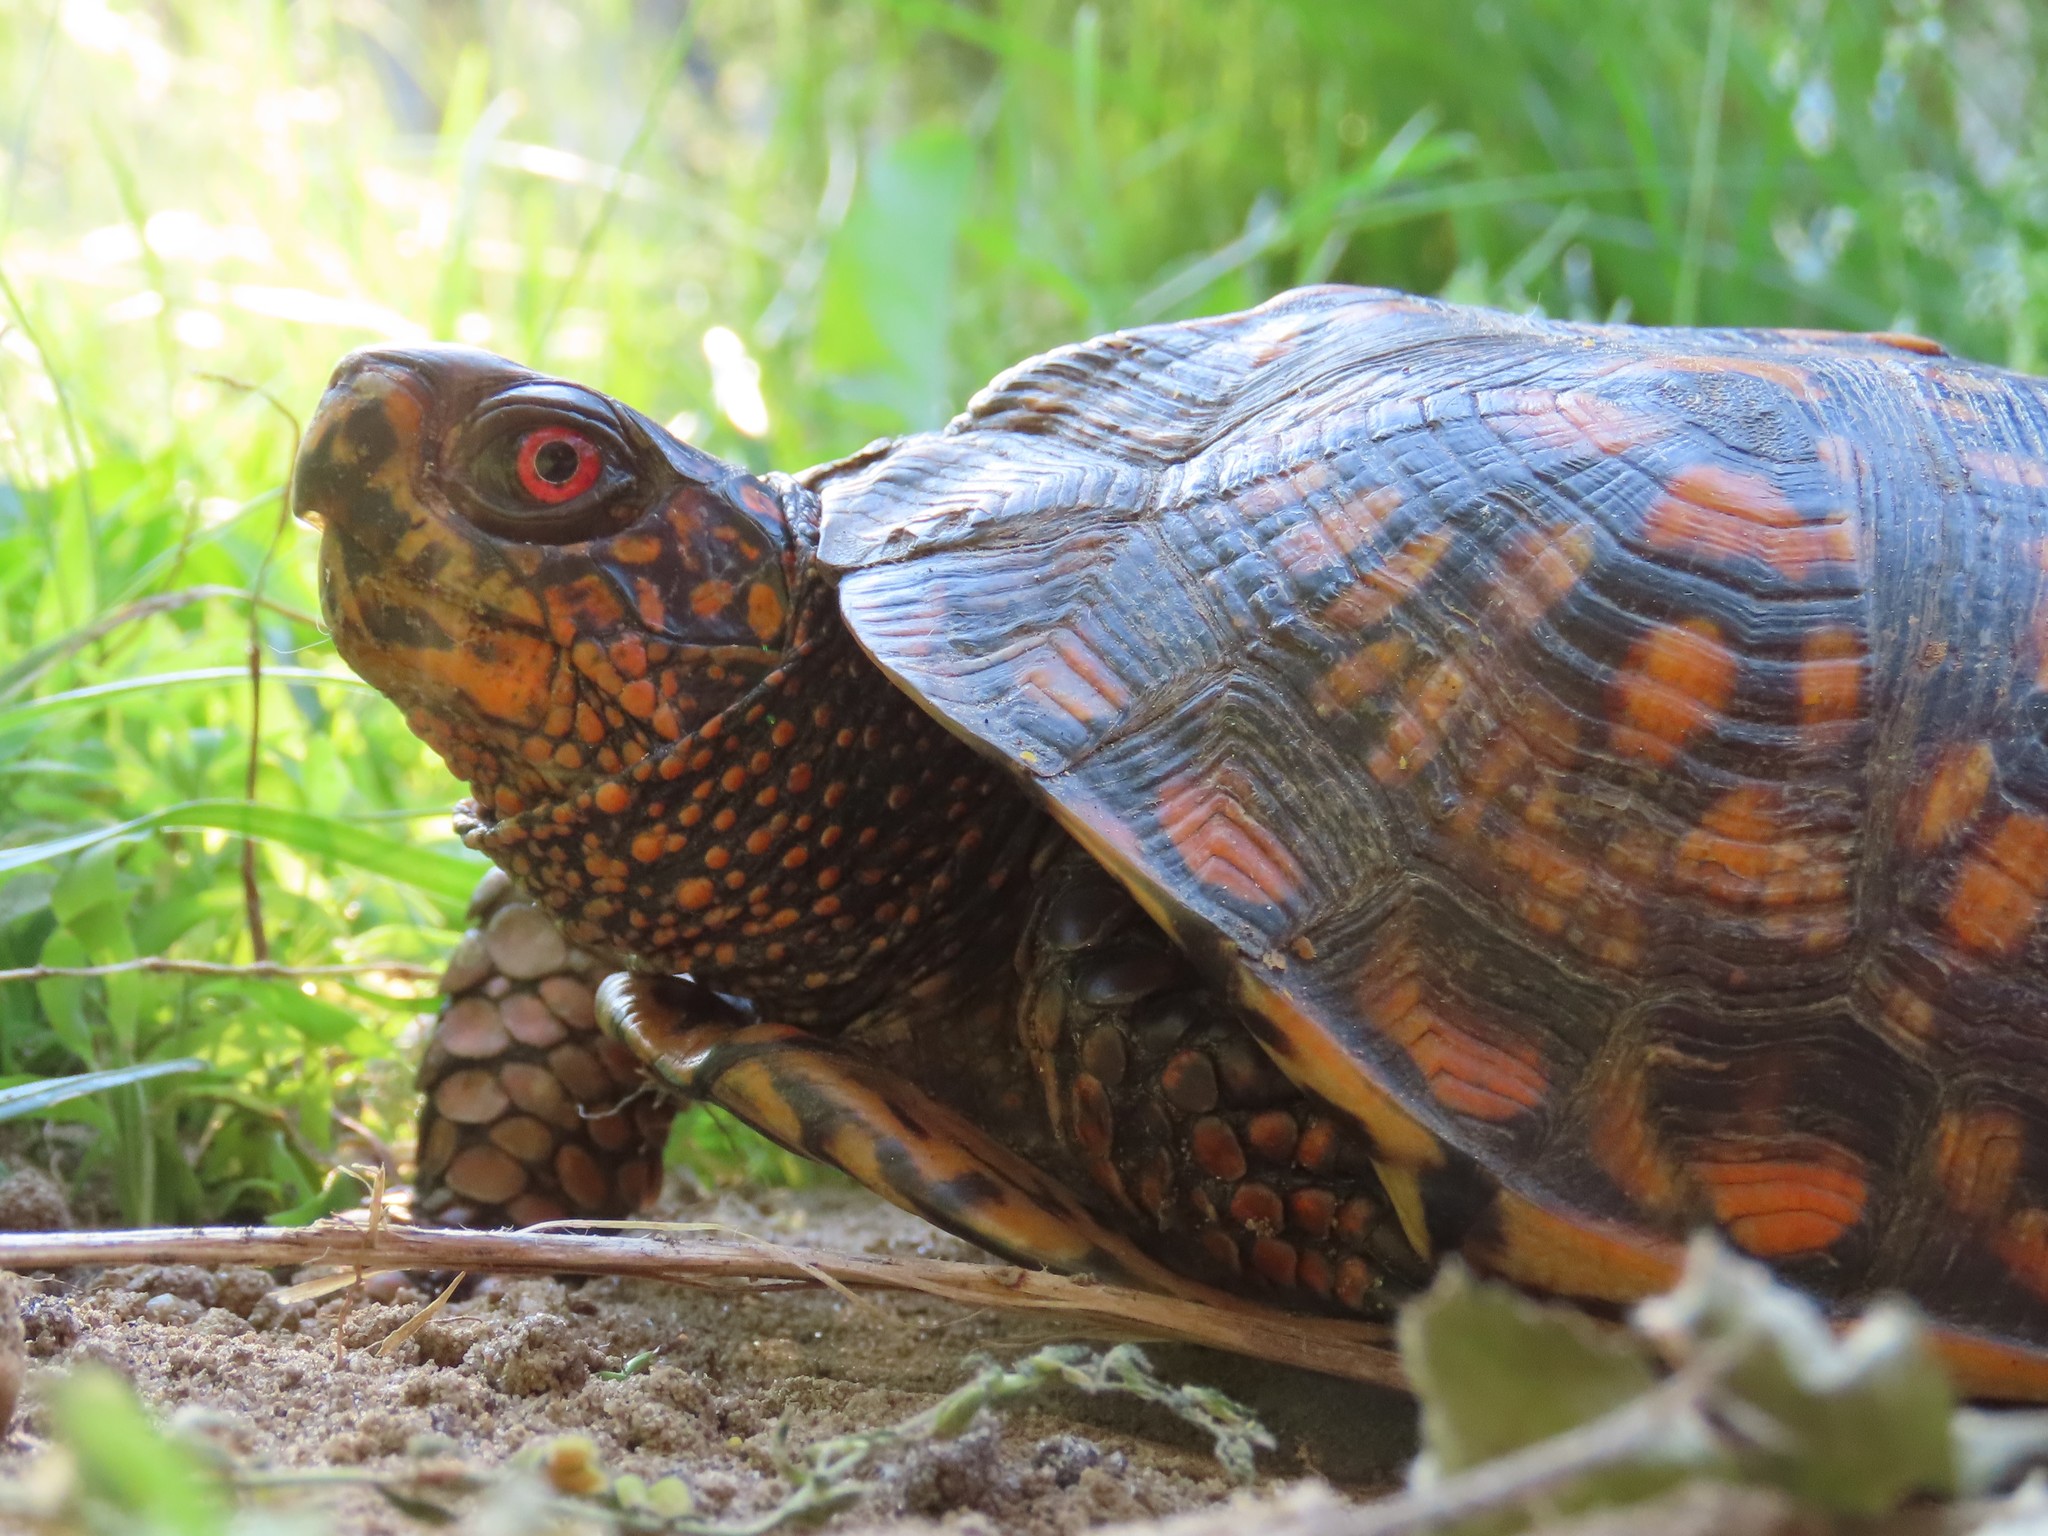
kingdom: Animalia
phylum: Chordata
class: Testudines
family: Emydidae
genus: Terrapene
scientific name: Terrapene carolina
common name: Common box turtle
